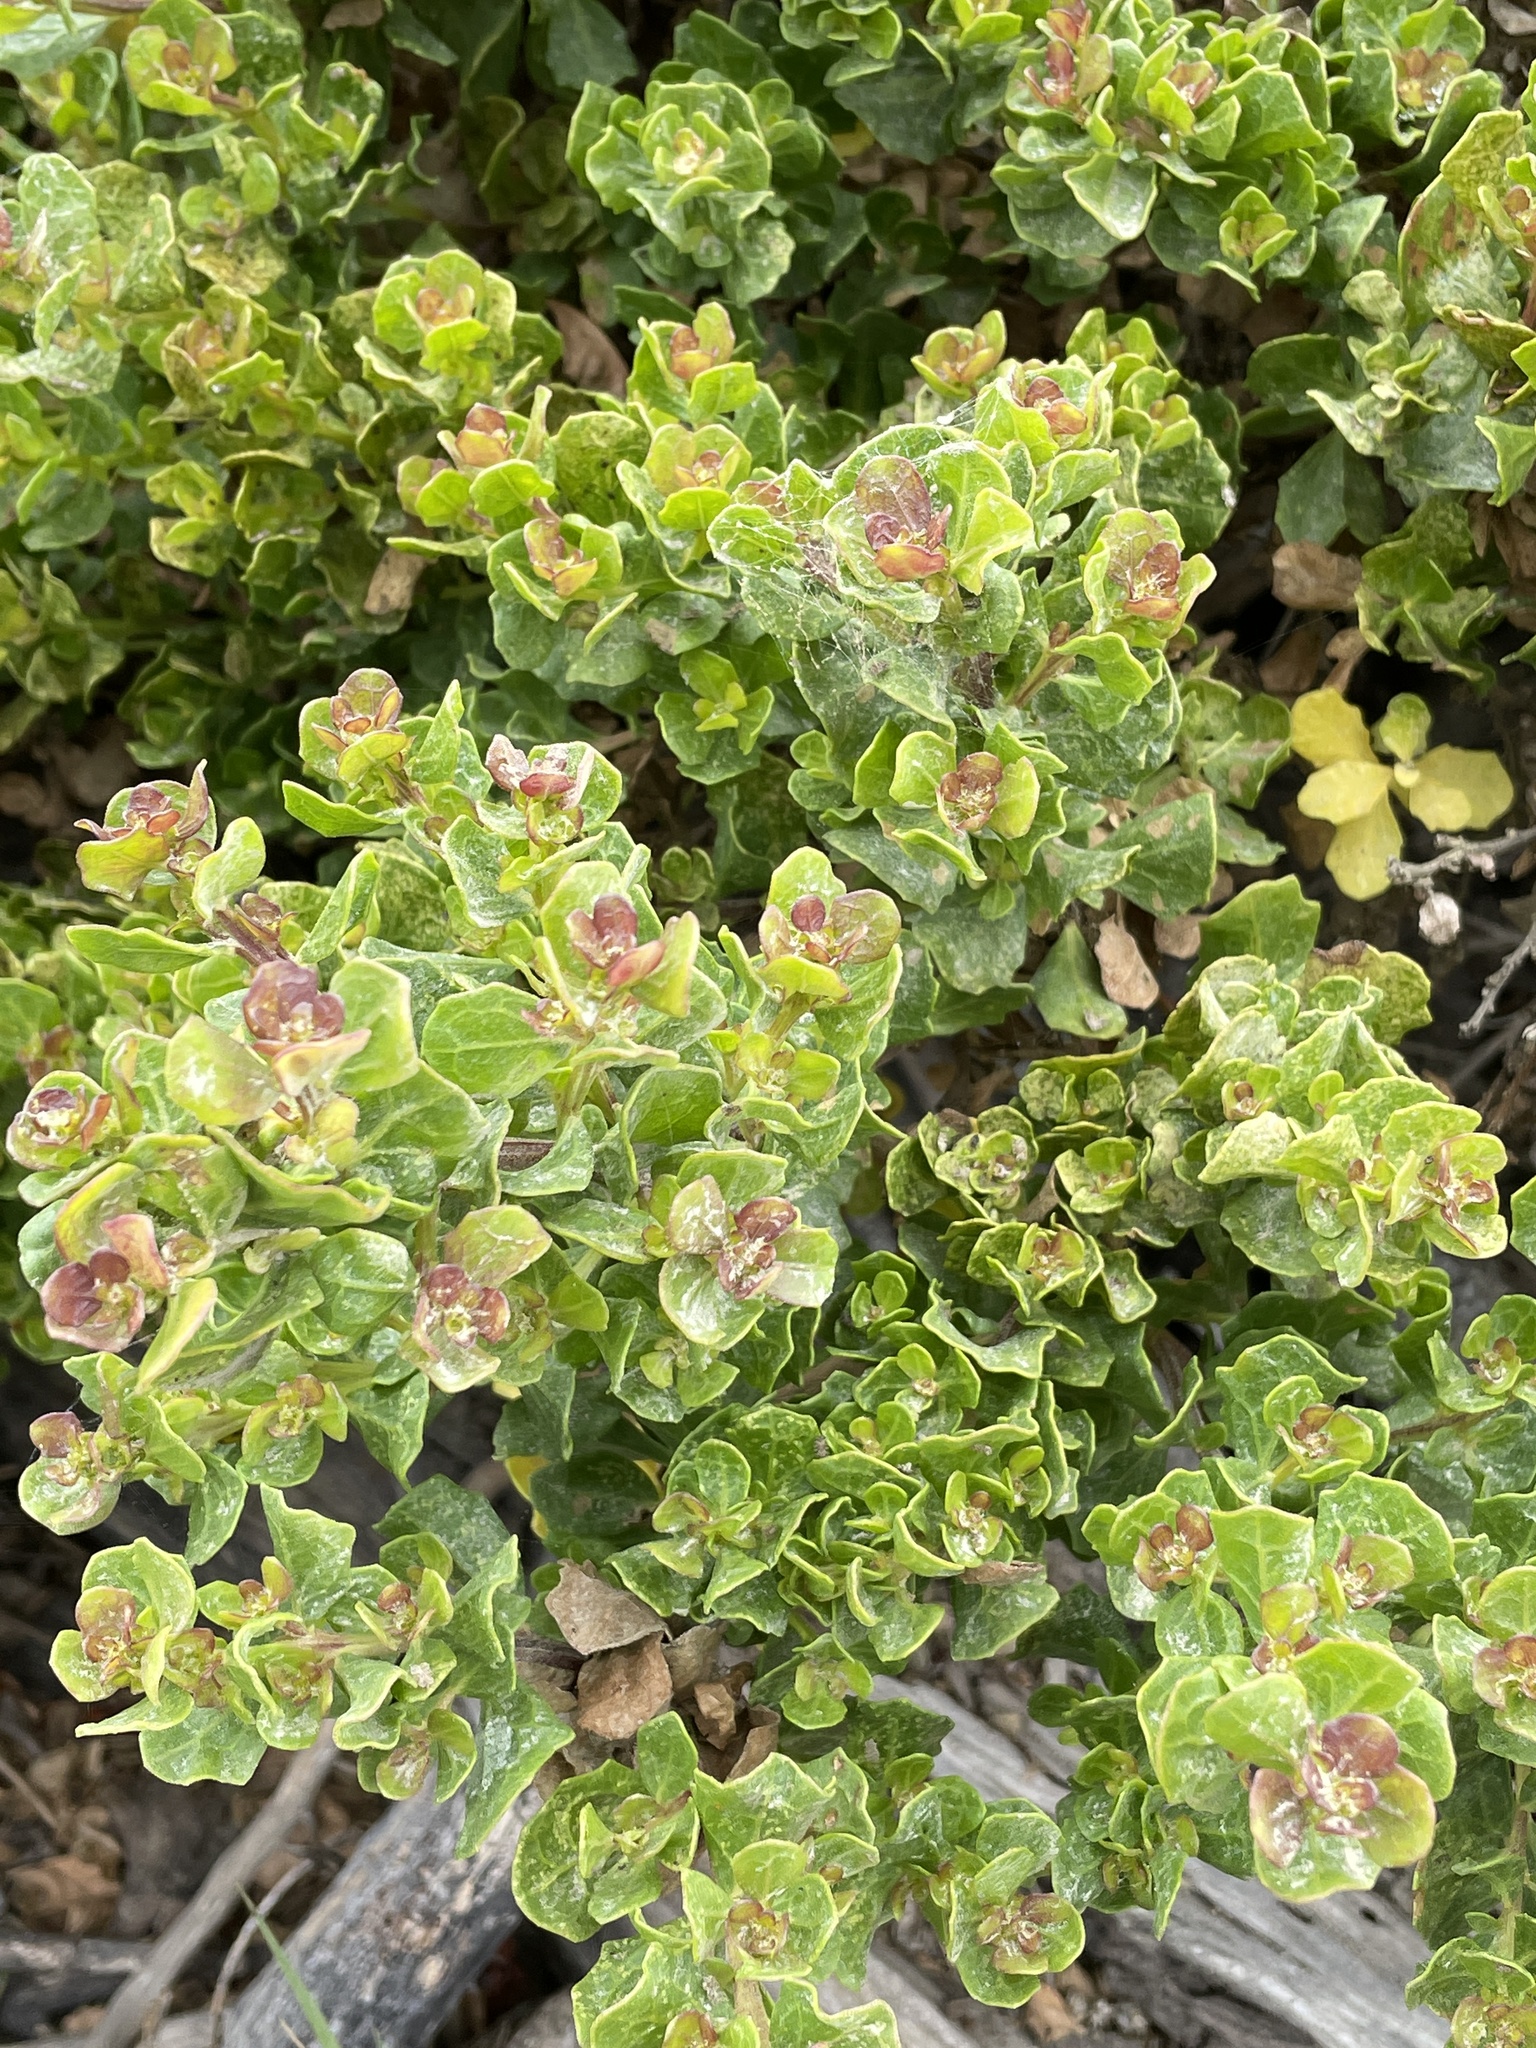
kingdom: Plantae
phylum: Tracheophyta
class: Magnoliopsida
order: Asterales
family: Asteraceae
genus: Baccharis
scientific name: Baccharis pilularis
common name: Coyotebrush
